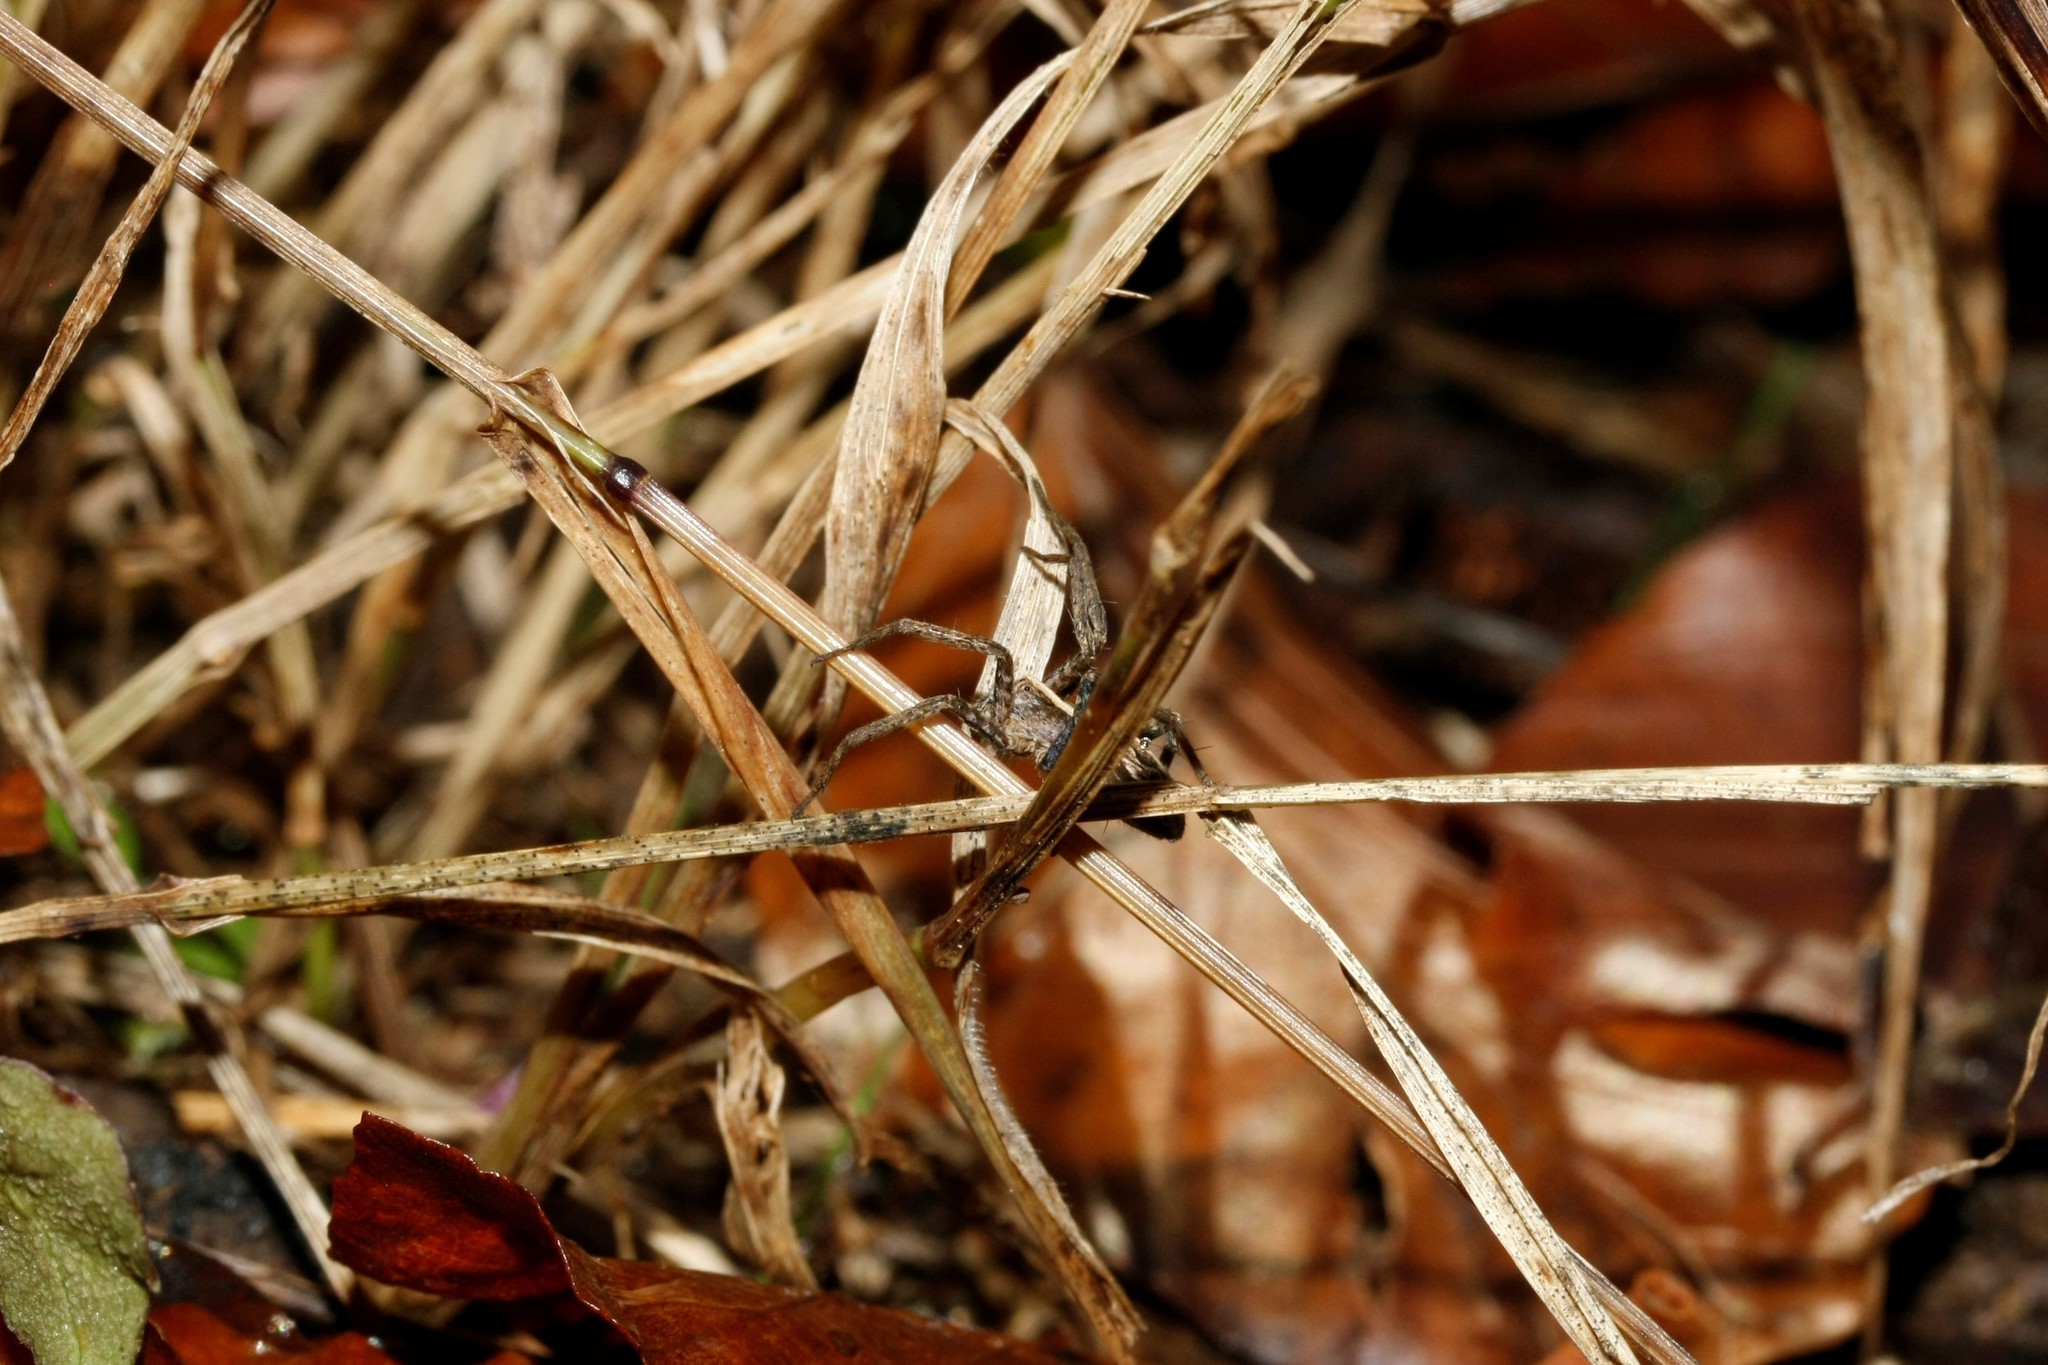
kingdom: Animalia
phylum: Arthropoda
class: Arachnida
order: Araneae
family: Pisauridae
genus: Pisaura
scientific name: Pisaura mirabilis
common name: Tent spider
